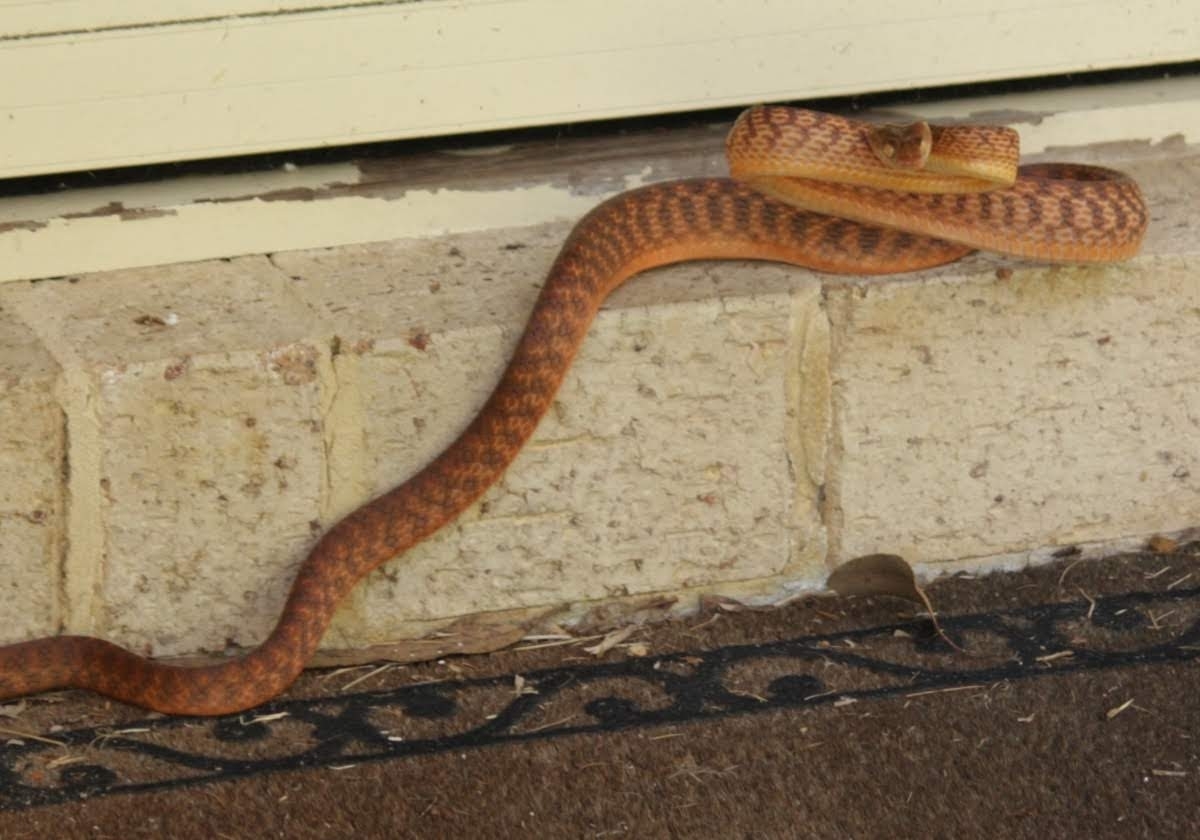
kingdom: Animalia
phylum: Chordata
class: Squamata
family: Colubridae
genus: Boiga
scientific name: Boiga irregularis
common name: Brown tree snake
